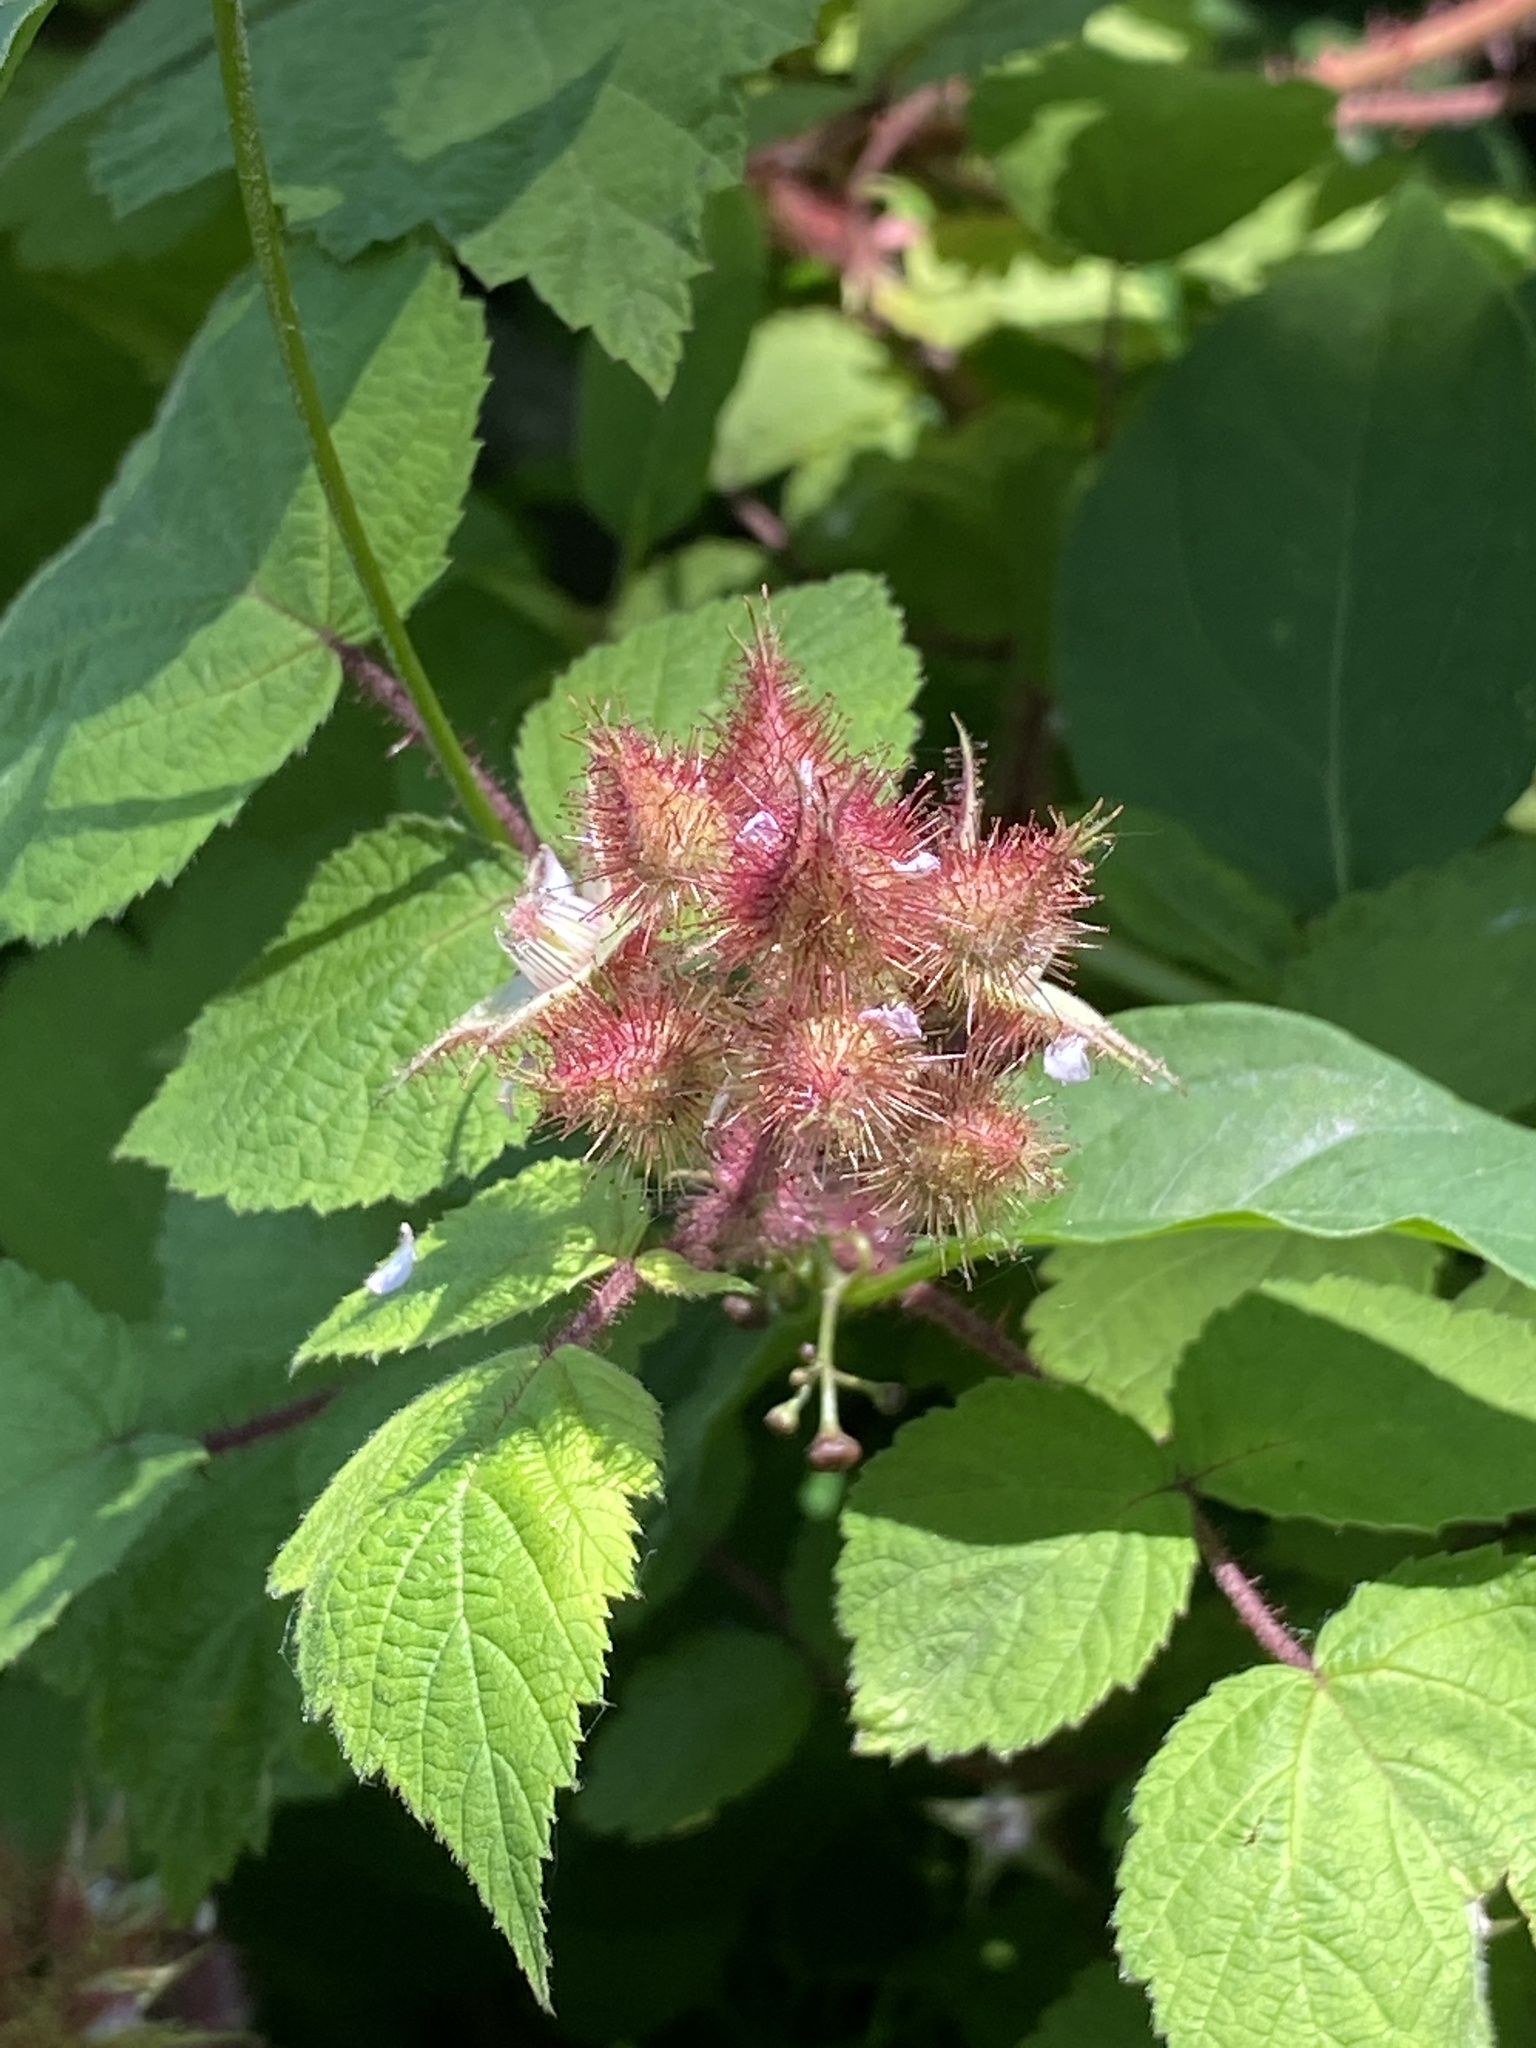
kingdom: Plantae
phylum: Tracheophyta
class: Magnoliopsida
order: Rosales
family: Rosaceae
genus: Rubus
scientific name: Rubus phoenicolasius
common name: Japanese wineberry
